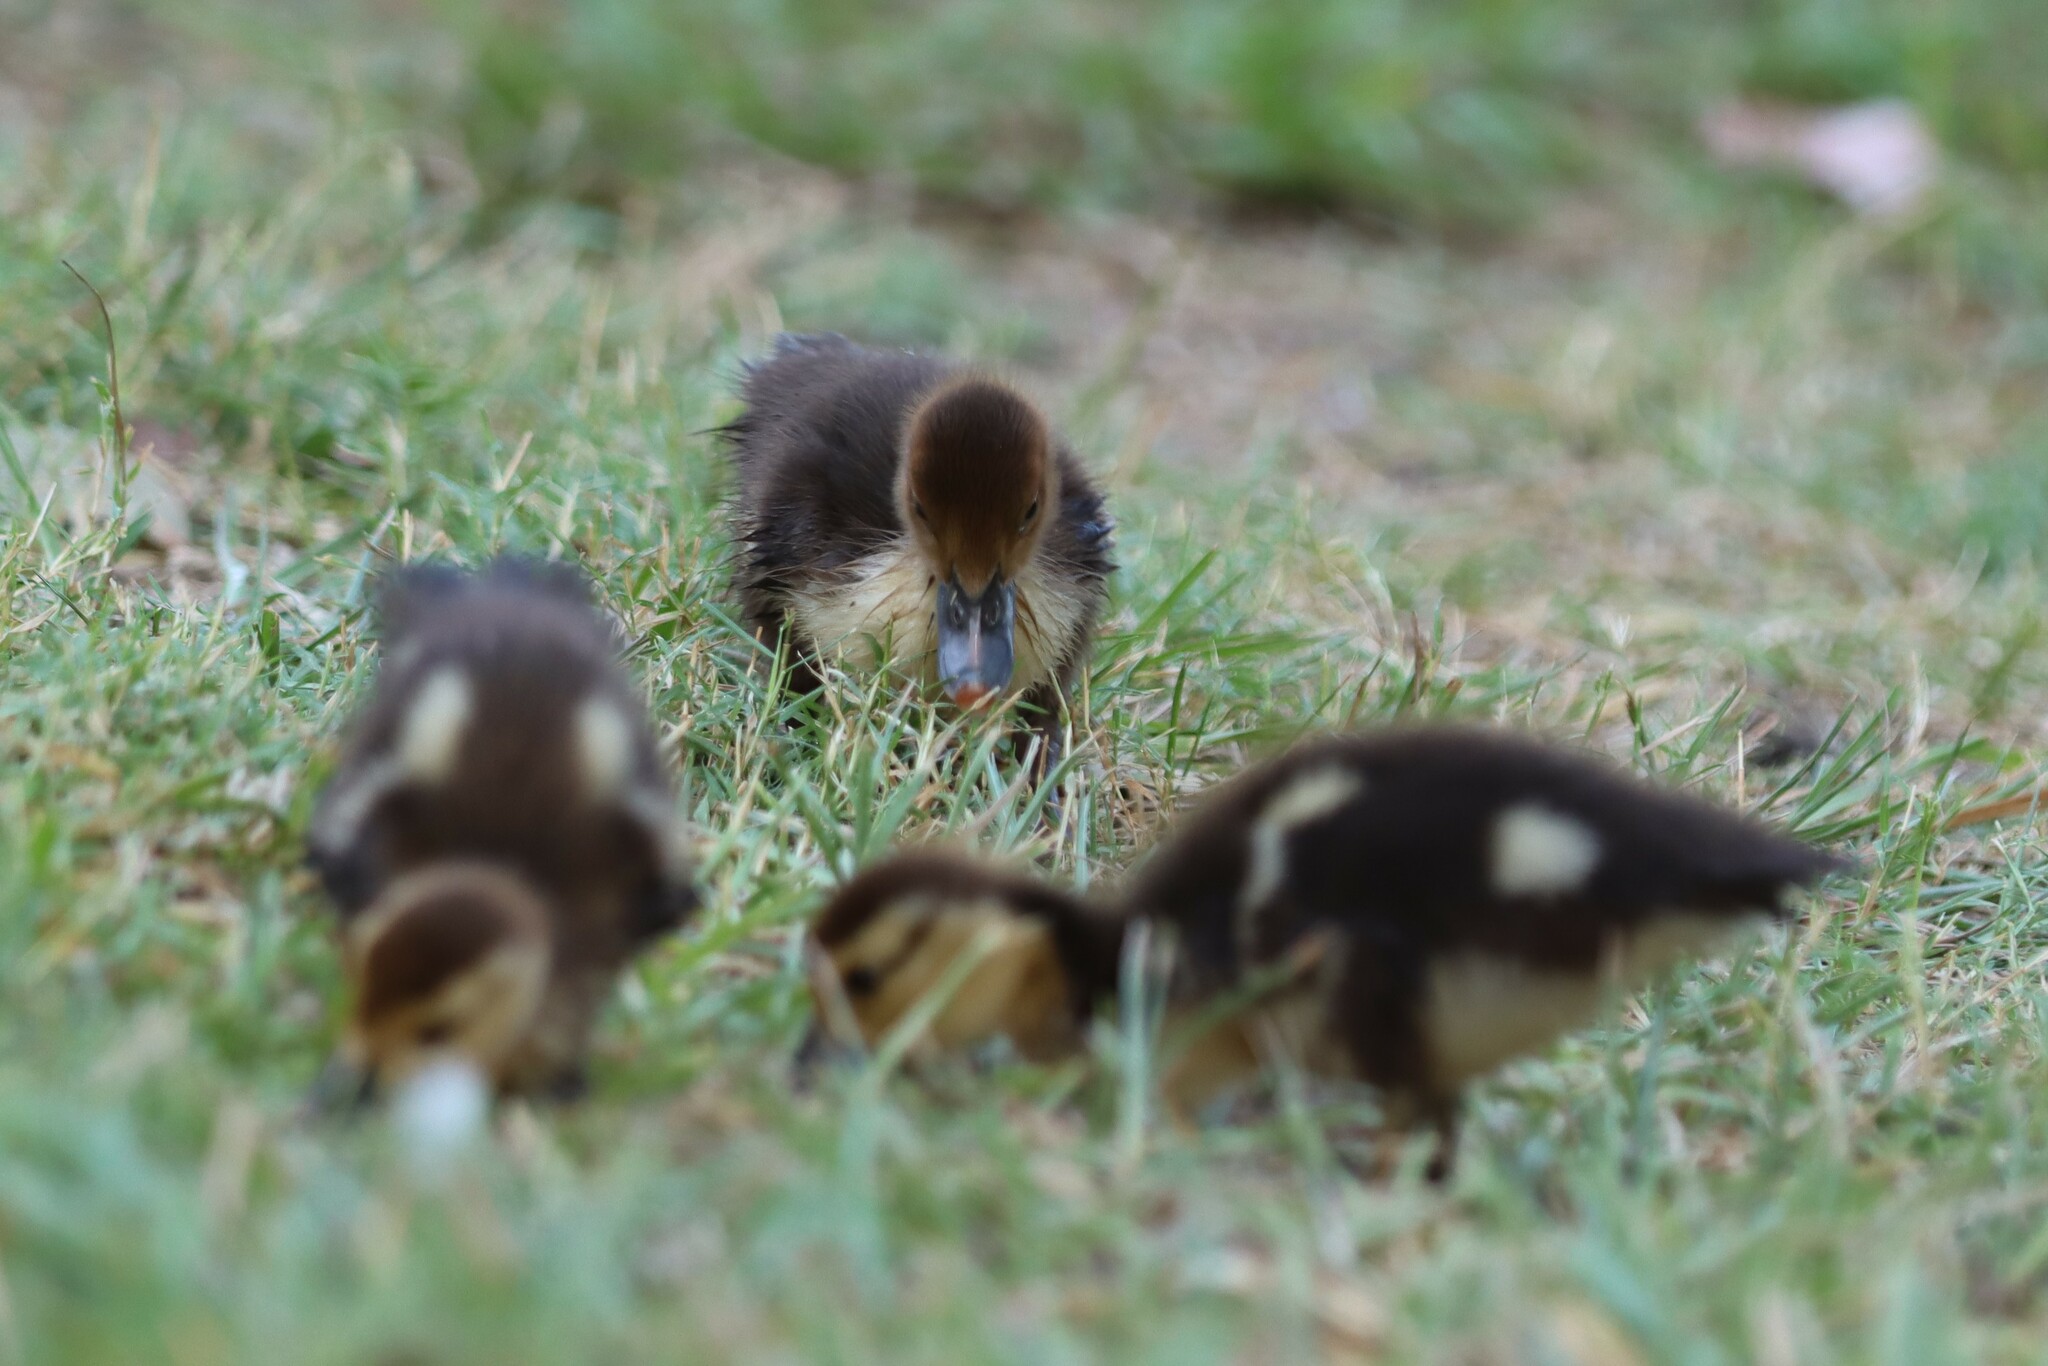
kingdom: Animalia
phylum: Chordata
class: Aves
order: Anseriformes
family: Anatidae
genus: Cairina
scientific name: Cairina moschata
